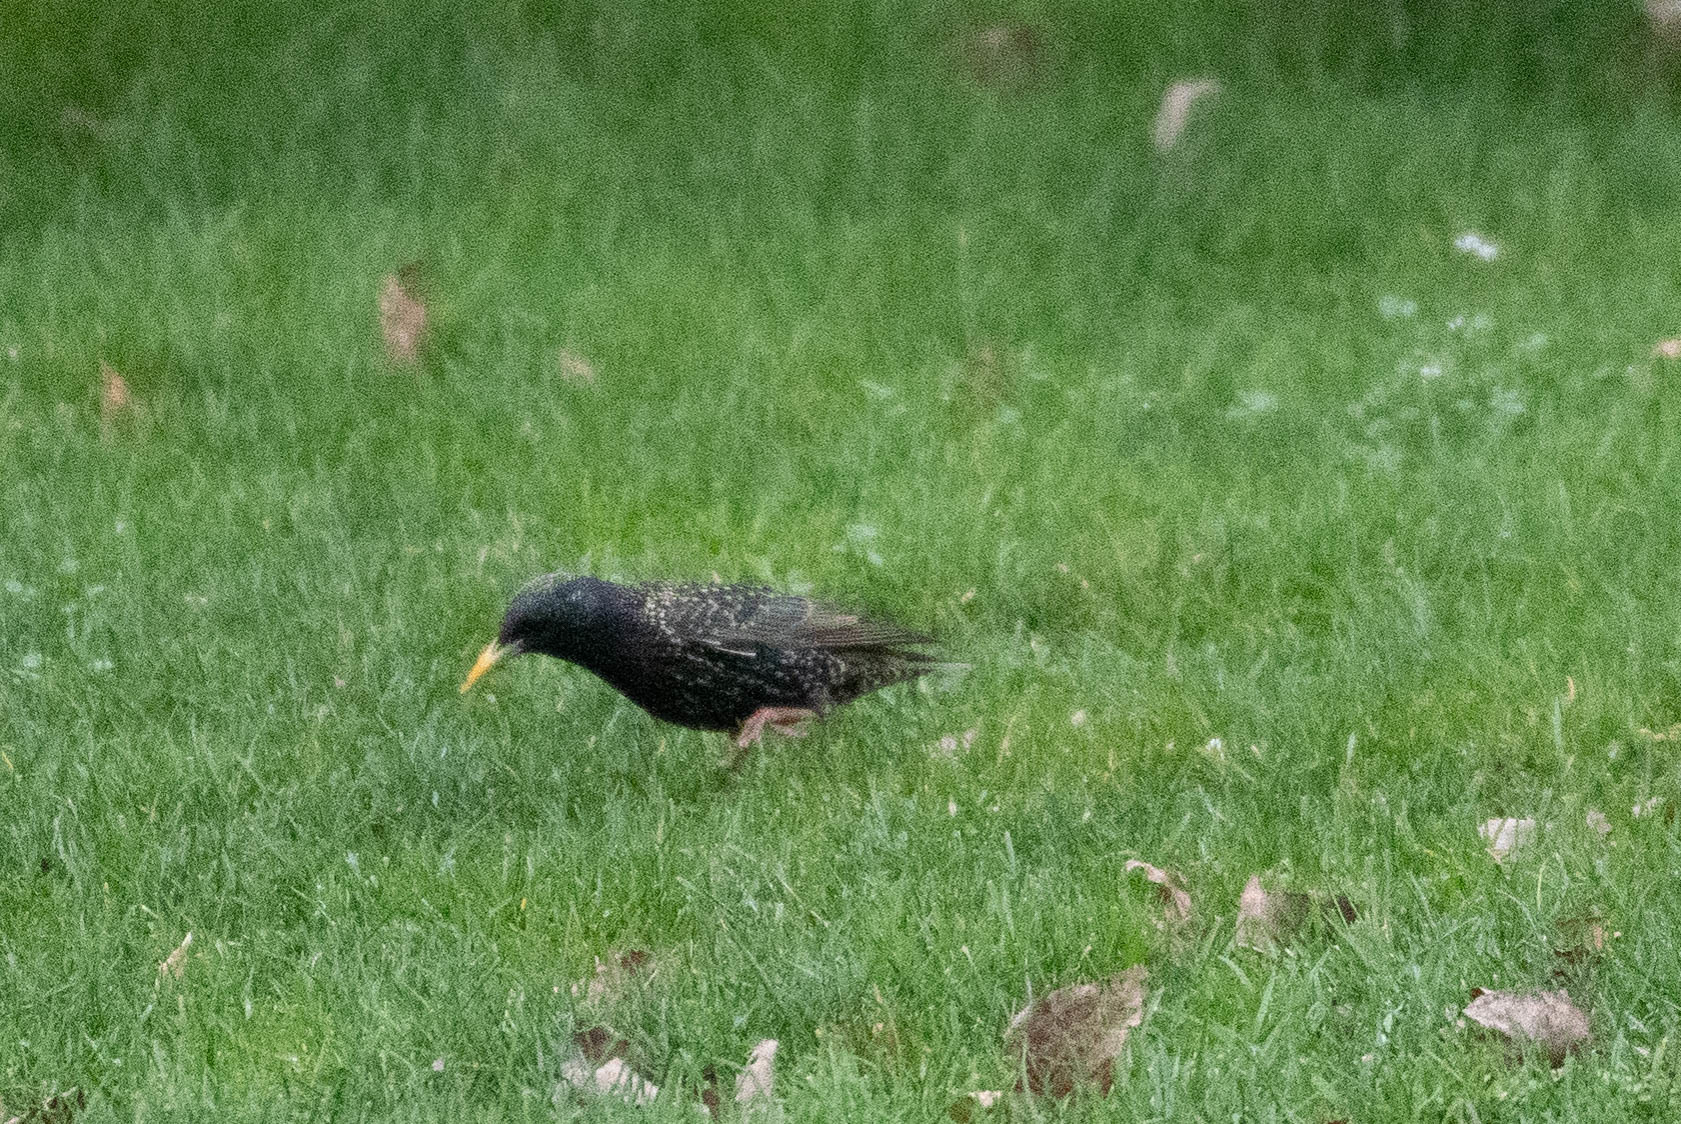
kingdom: Animalia
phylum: Chordata
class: Aves
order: Passeriformes
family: Sturnidae
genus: Sturnus
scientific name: Sturnus vulgaris
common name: Common starling
